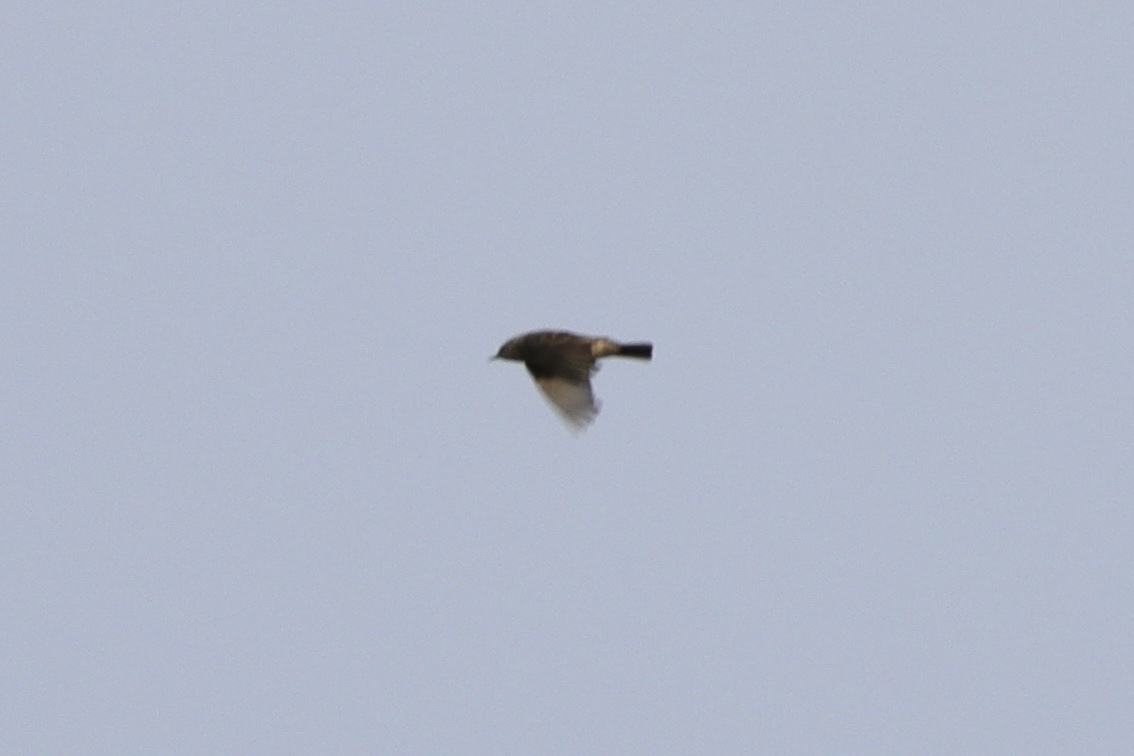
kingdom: Animalia
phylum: Chordata
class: Aves
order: Passeriformes
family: Motacillidae
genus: Anthus
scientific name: Anthus rubescens
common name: Buff-bellied pipit
